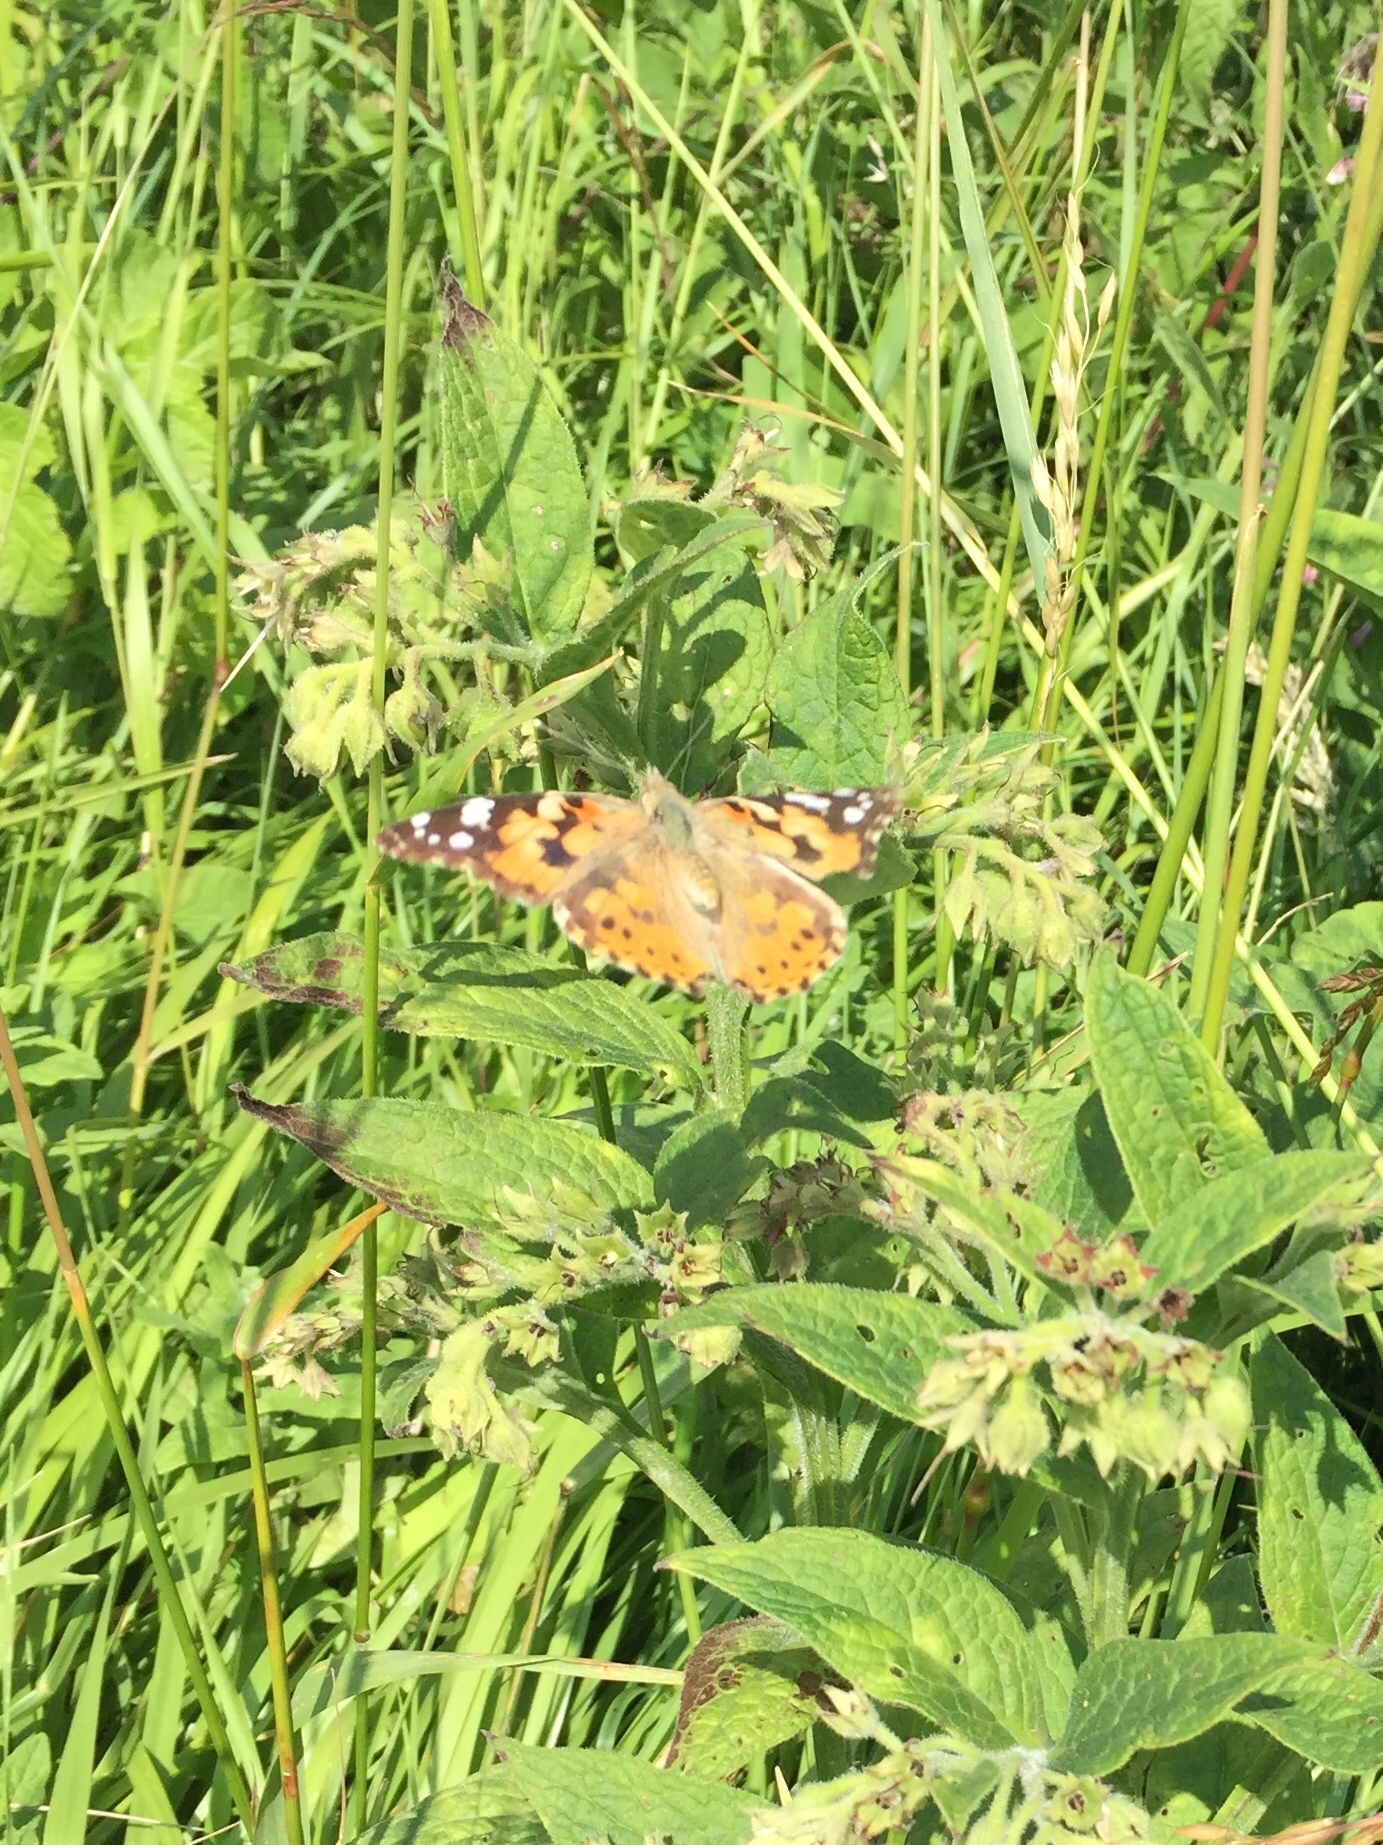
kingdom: Animalia
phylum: Arthropoda
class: Insecta
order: Lepidoptera
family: Nymphalidae
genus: Vanessa
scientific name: Vanessa cardui
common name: Painted lady
